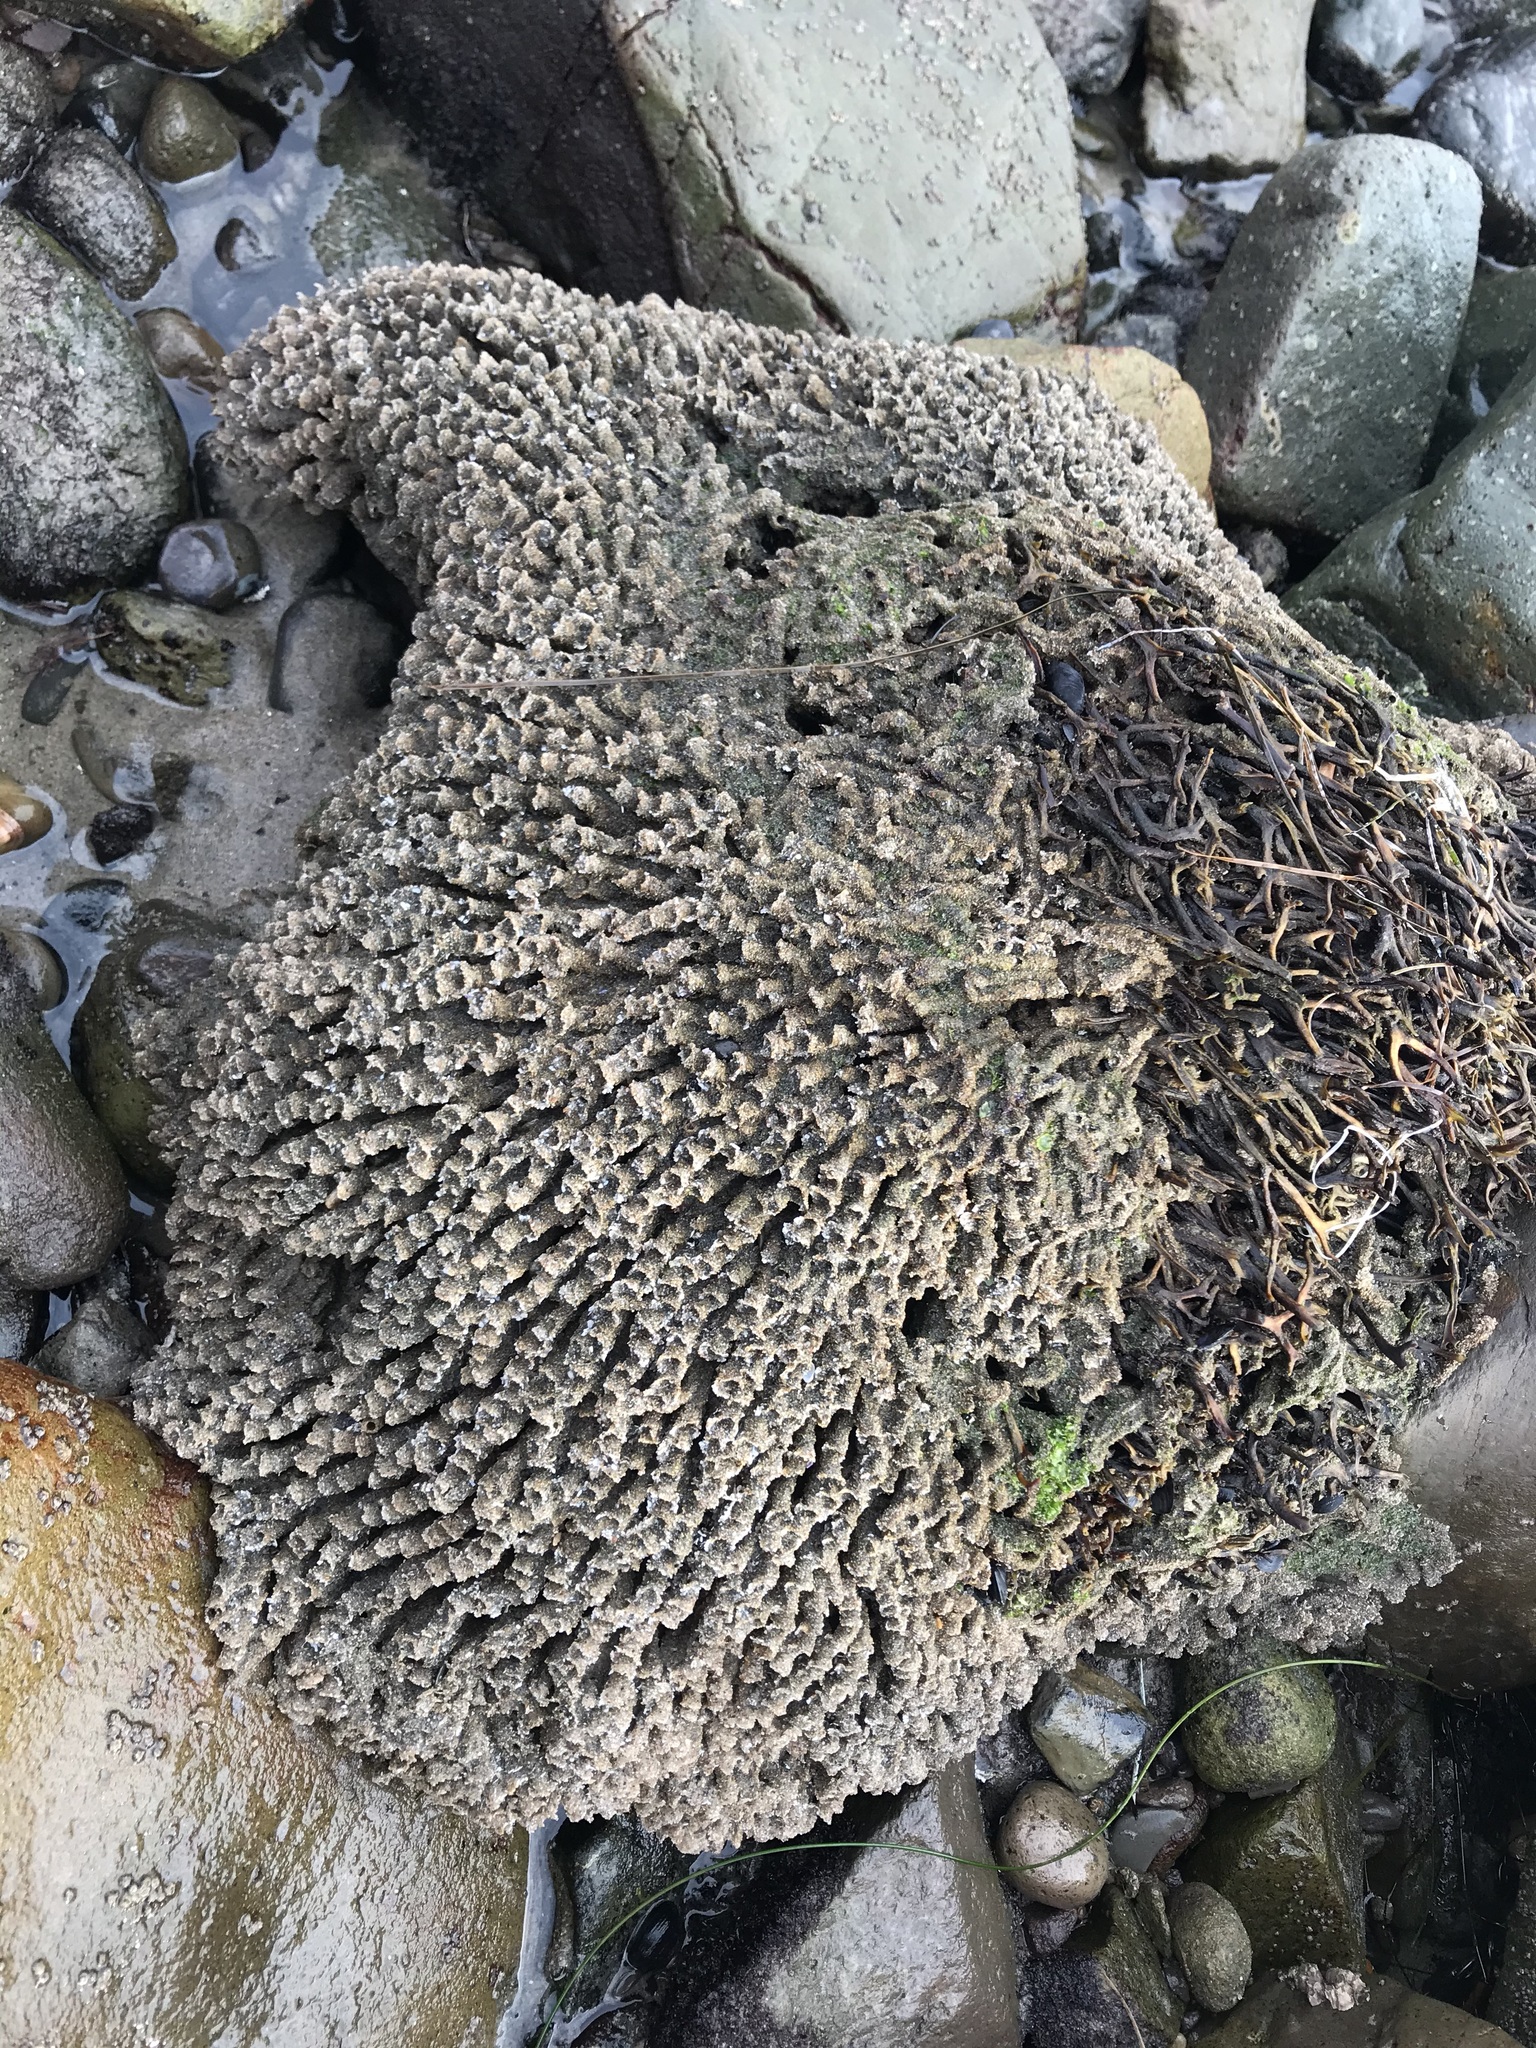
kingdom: Animalia
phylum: Annelida
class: Polychaeta
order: Sabellida
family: Sabellariidae
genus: Phragmatopoma
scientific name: Phragmatopoma californica
